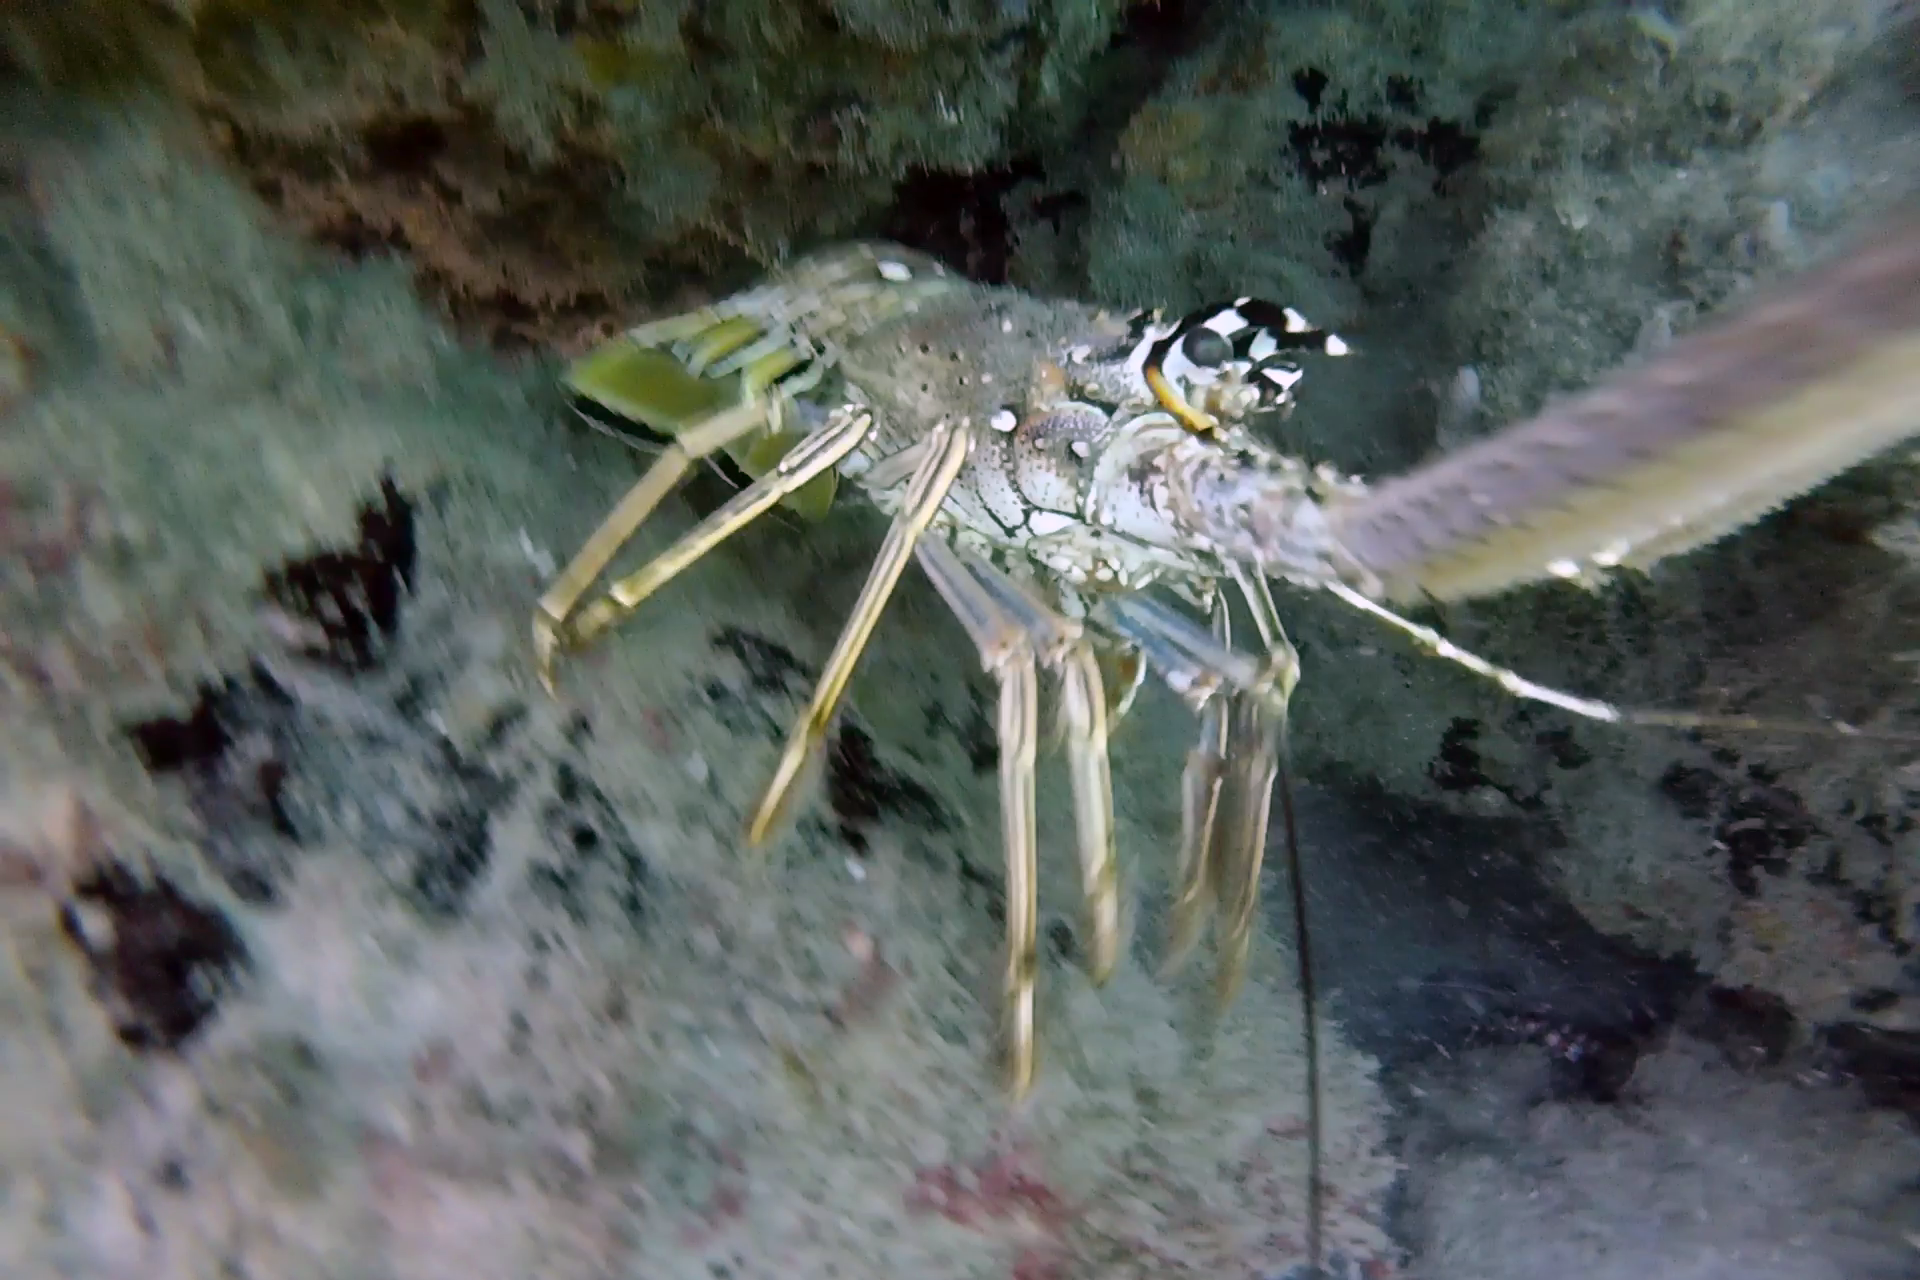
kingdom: Animalia
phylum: Arthropoda
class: Malacostraca
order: Decapoda
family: Palinuridae
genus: Panulirus
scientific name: Panulirus argus
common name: Caribbean spiny lobster
